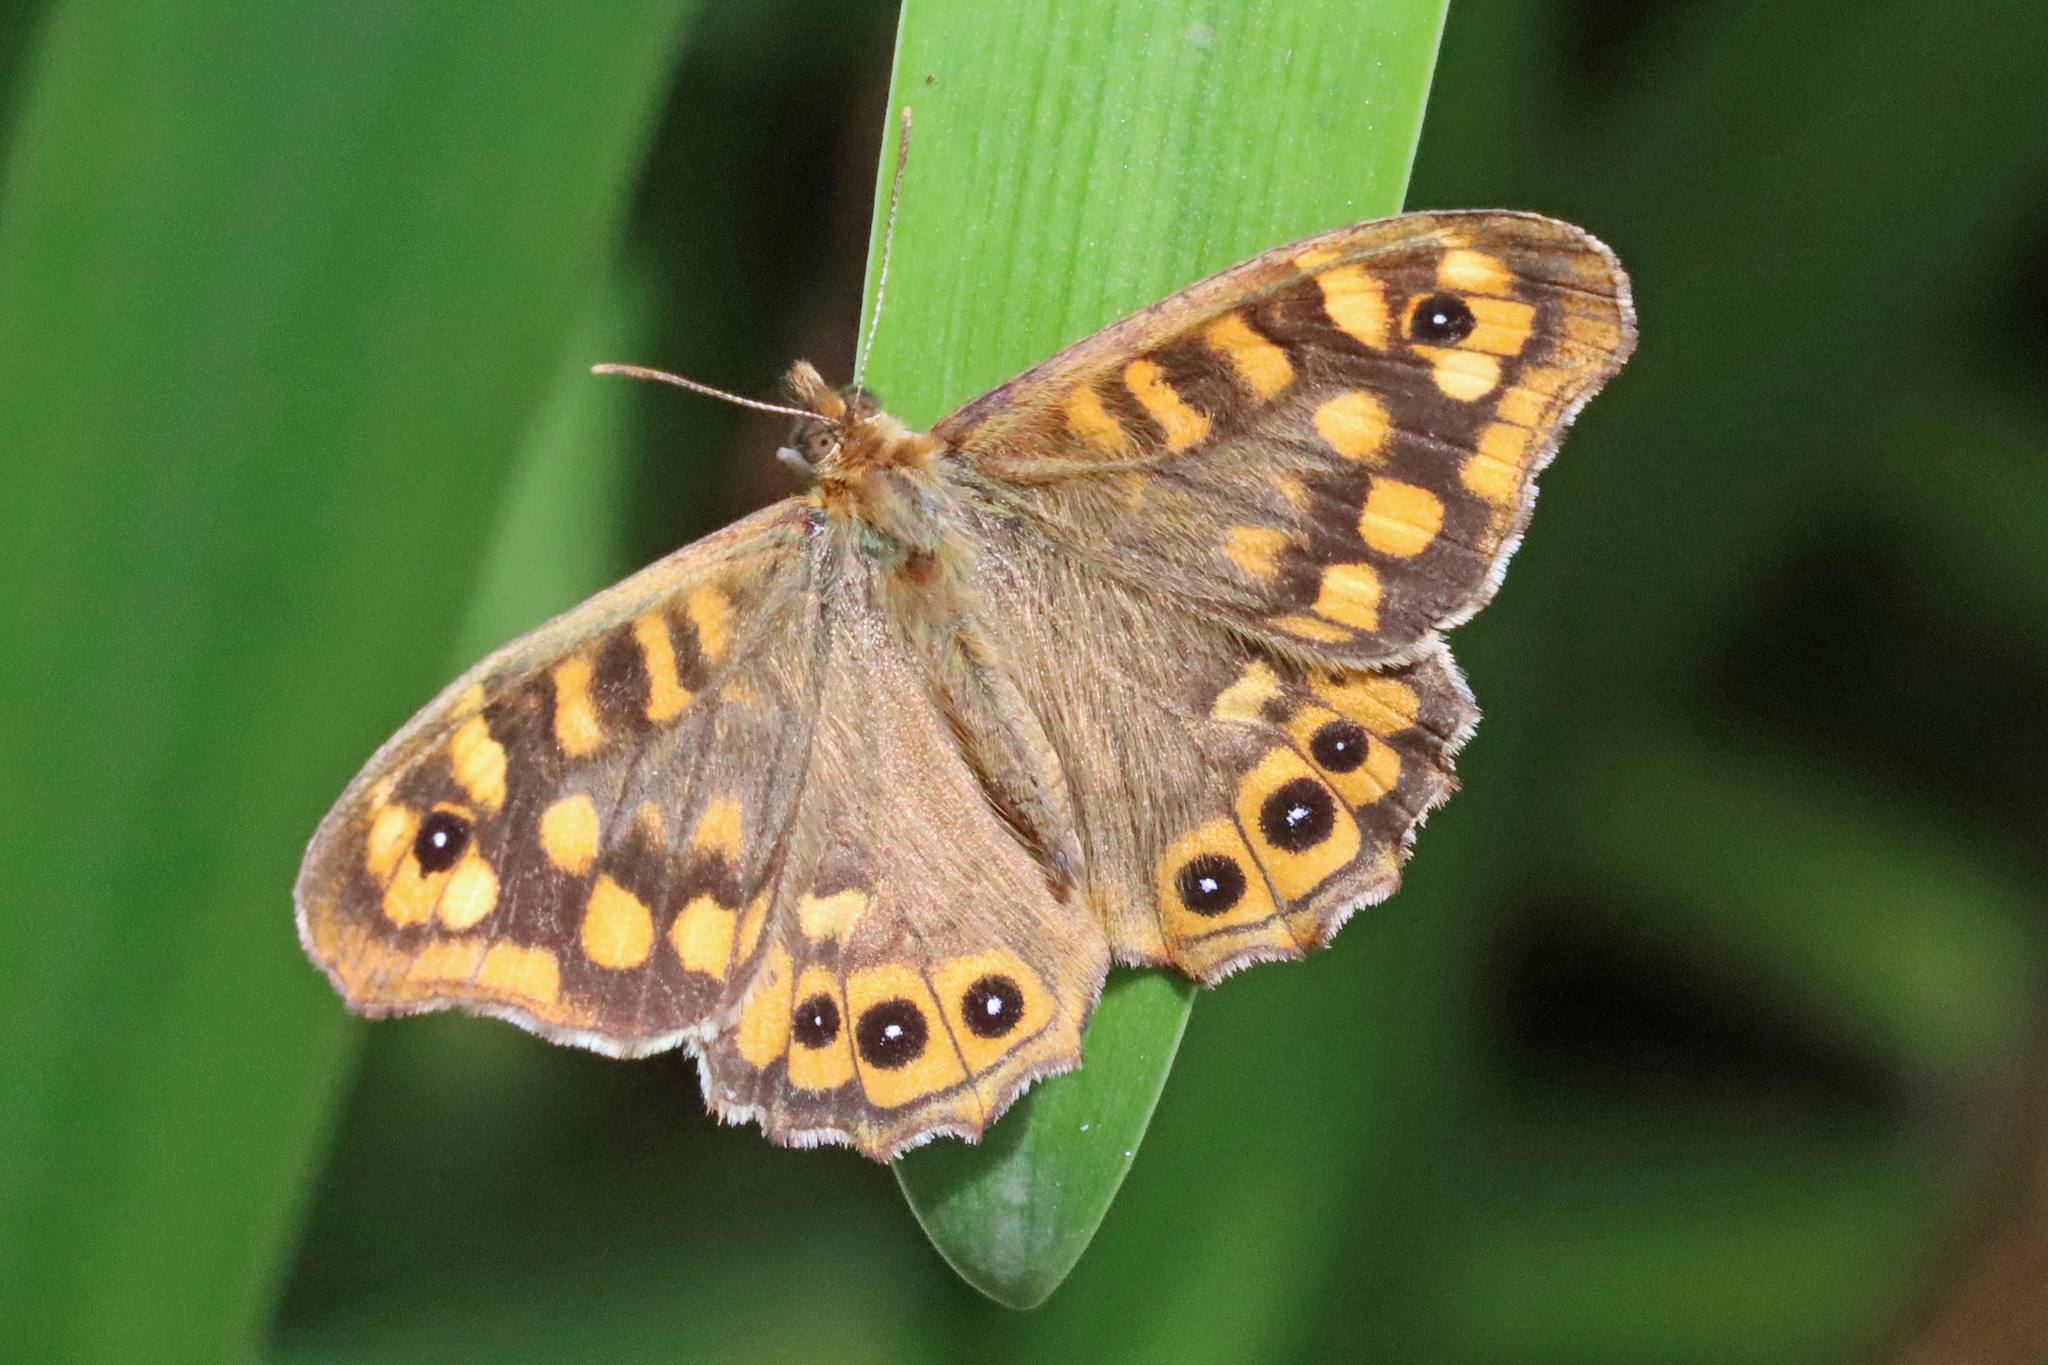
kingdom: Animalia
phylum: Arthropoda
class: Insecta
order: Lepidoptera
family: Nymphalidae
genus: Pararge
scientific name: Pararge aegeria
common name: Speckled wood
